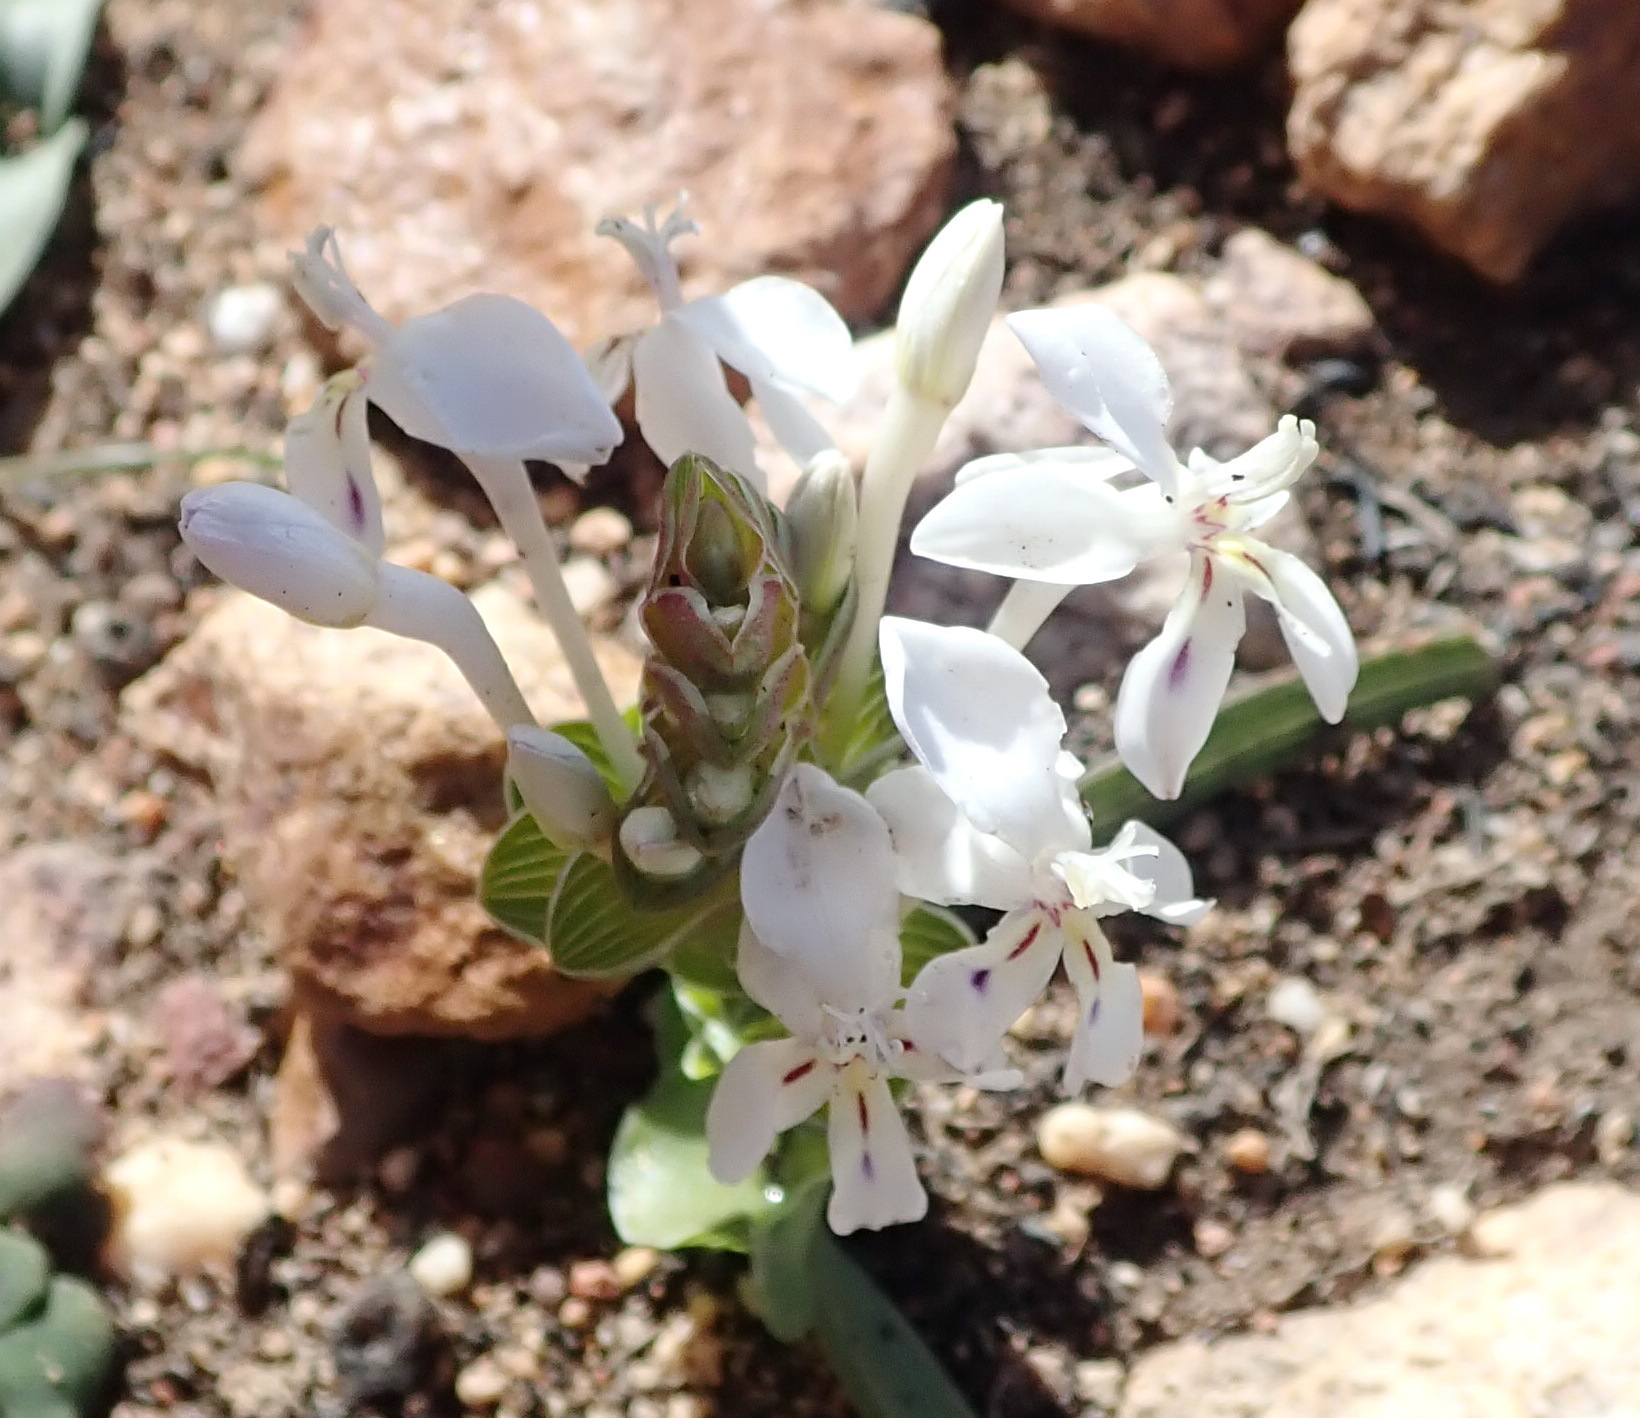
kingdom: Plantae
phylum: Tracheophyta
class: Liliopsida
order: Asparagales
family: Iridaceae
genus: Lapeirousia
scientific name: Lapeirousia pyramidalis
